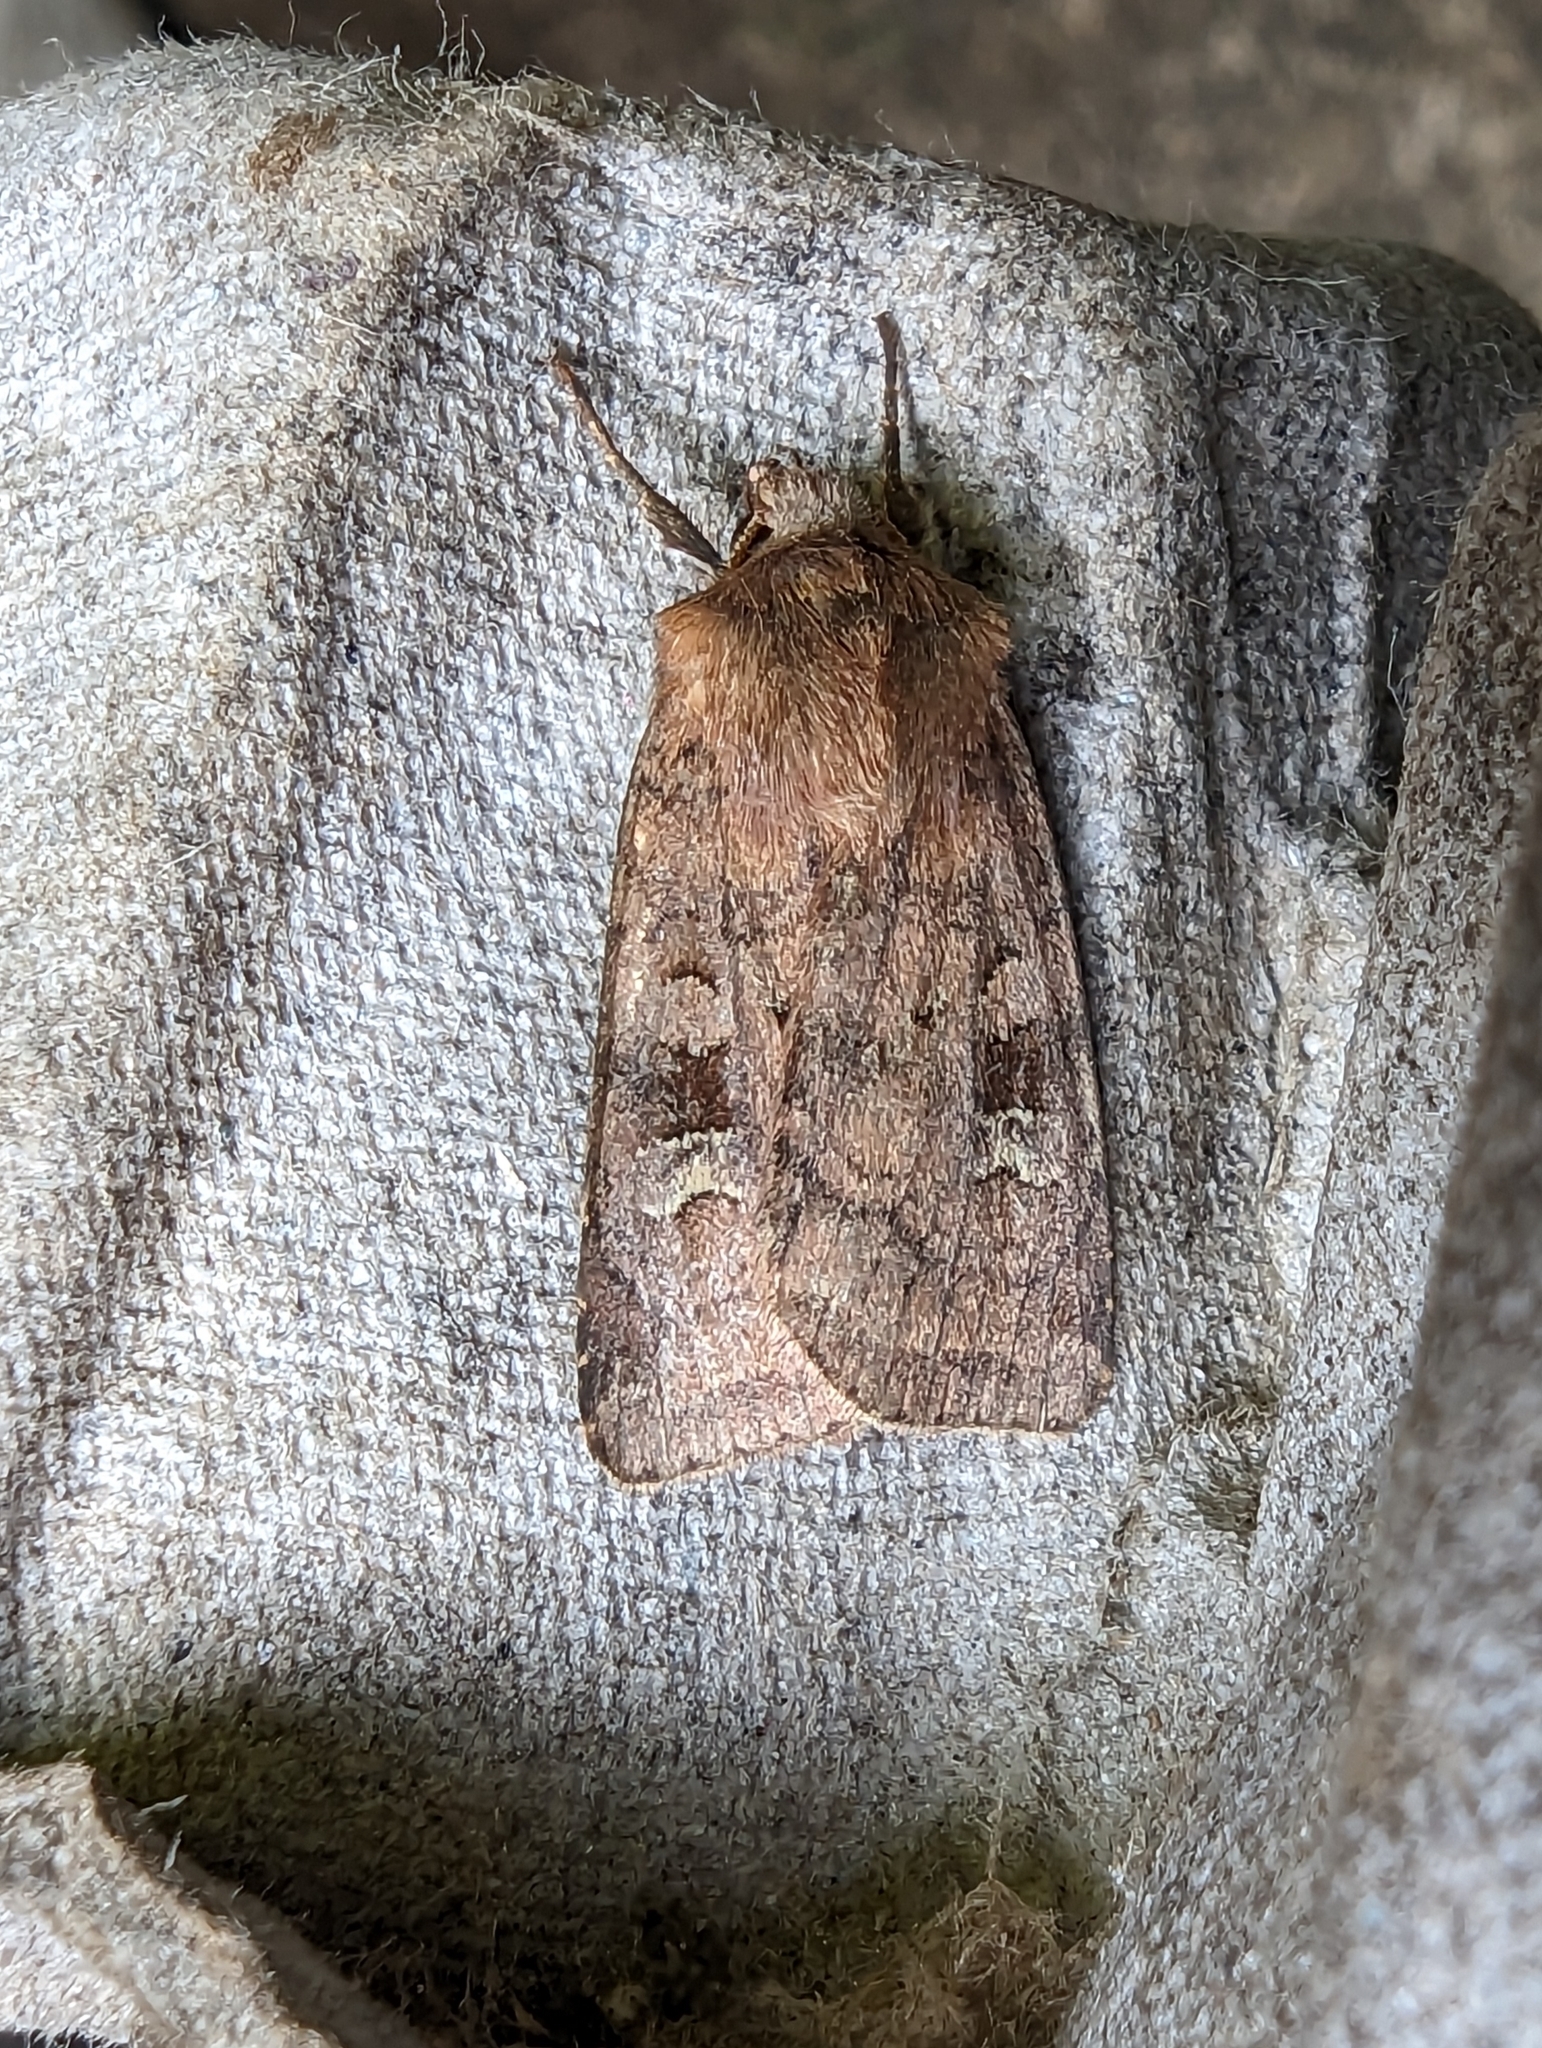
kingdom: Animalia
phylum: Arthropoda
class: Insecta
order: Lepidoptera
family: Noctuidae
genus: Diarsia
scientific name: Diarsia rubi
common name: Small square-spot
